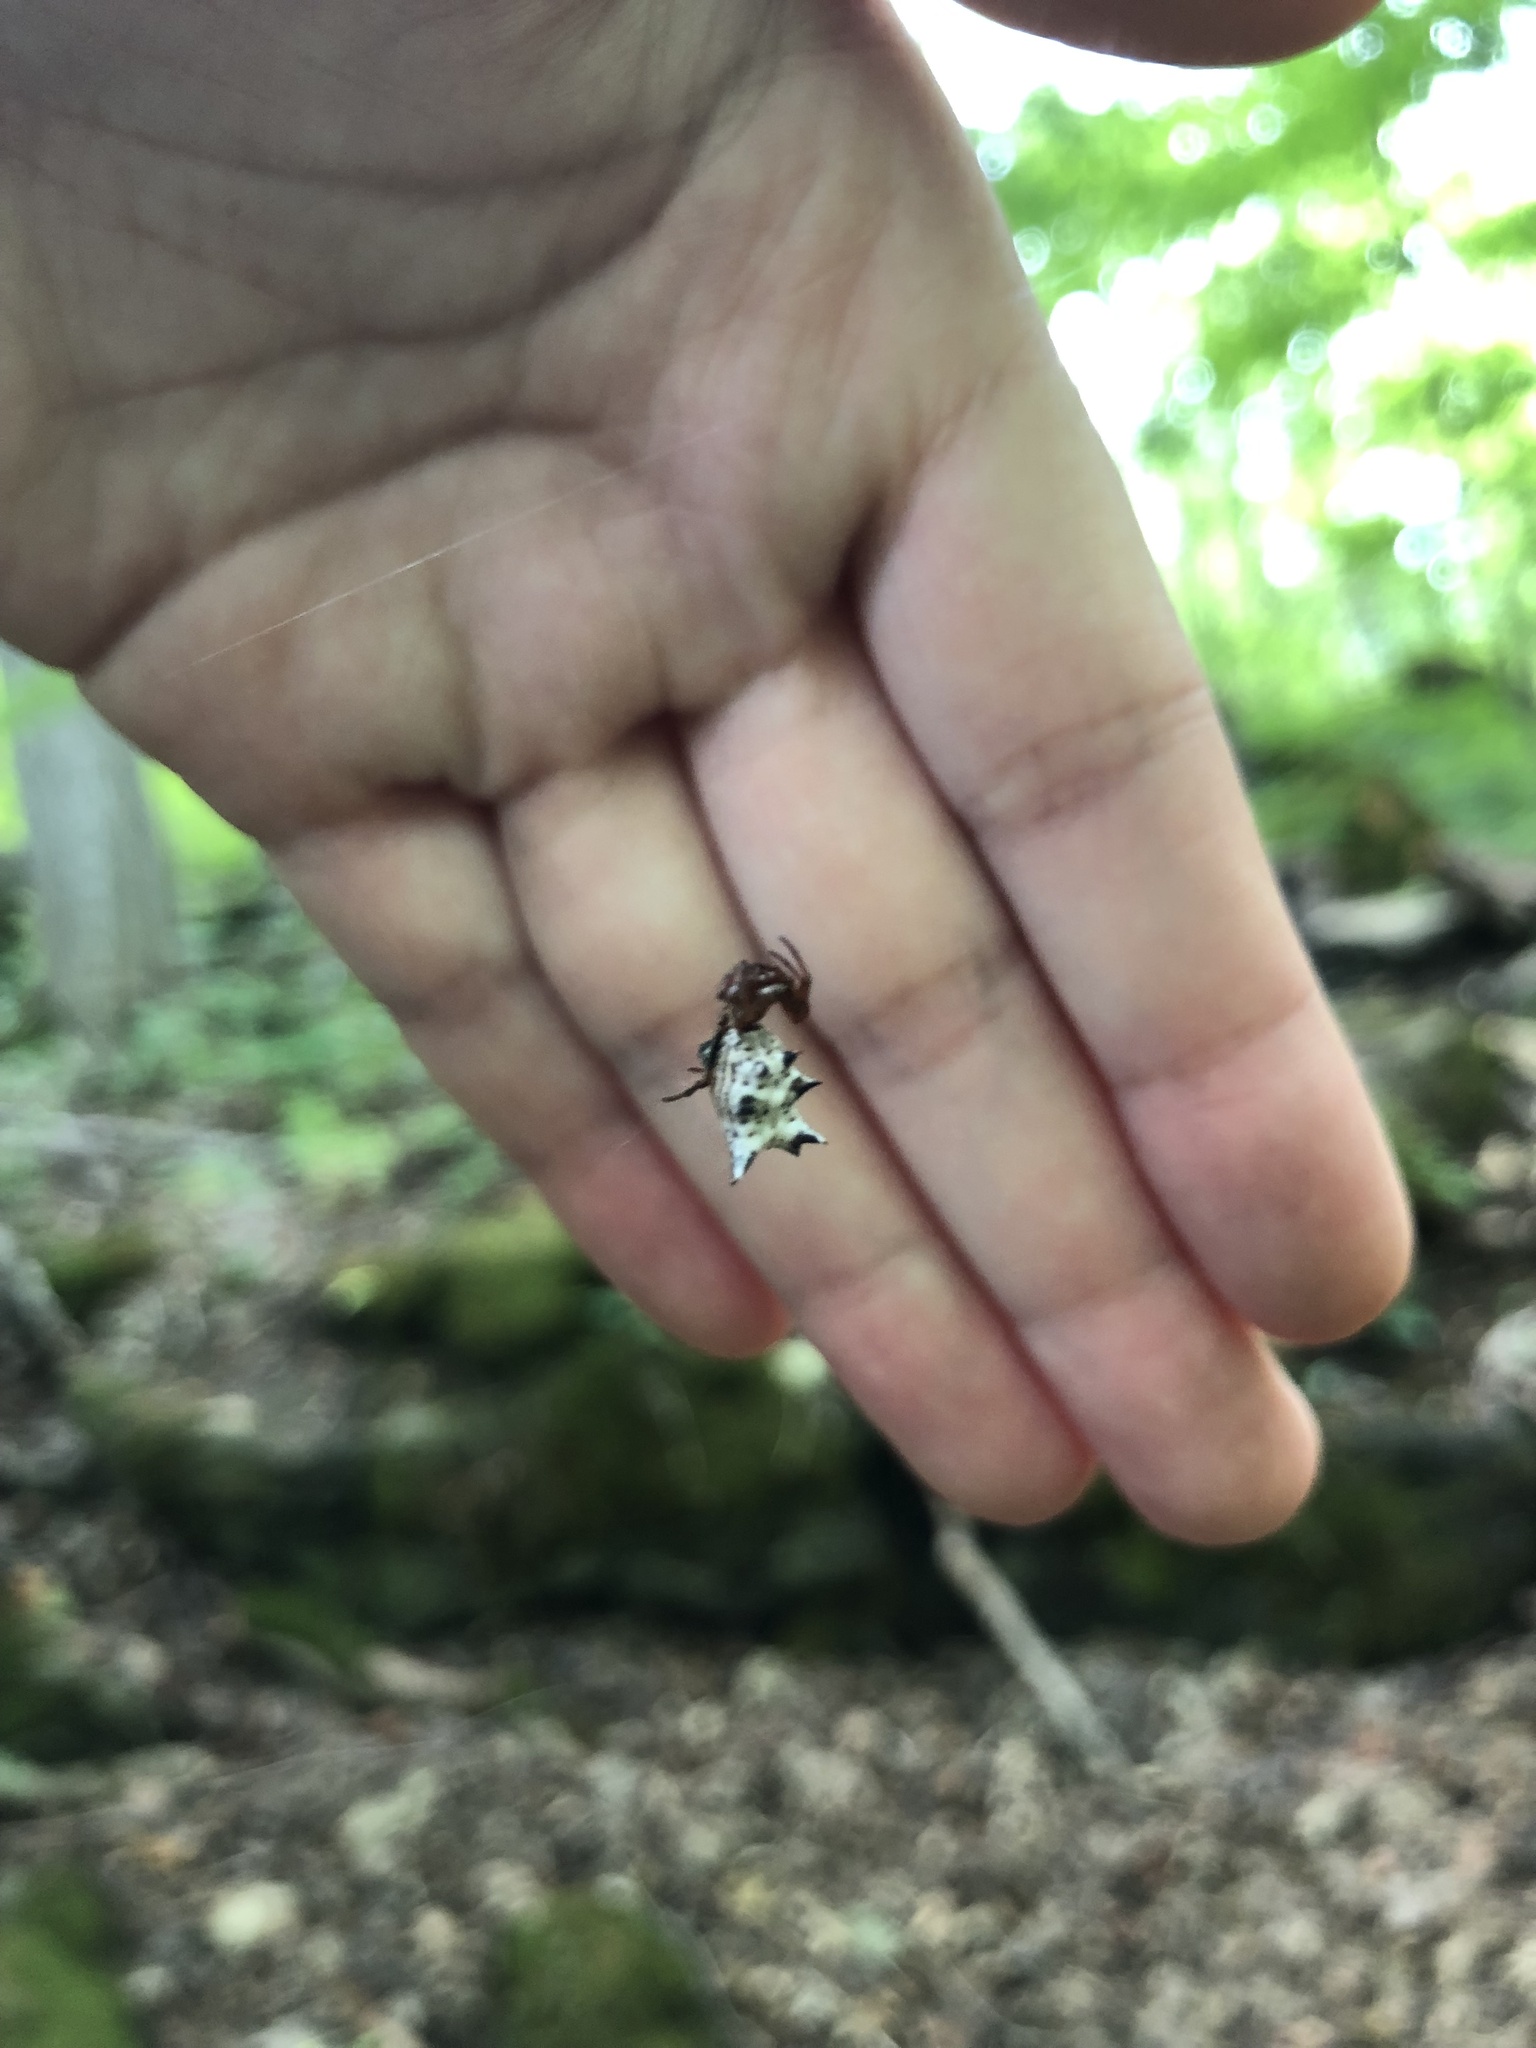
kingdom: Animalia
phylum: Arthropoda
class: Arachnida
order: Araneae
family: Araneidae
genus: Micrathena
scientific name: Micrathena gracilis
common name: Orb weavers
